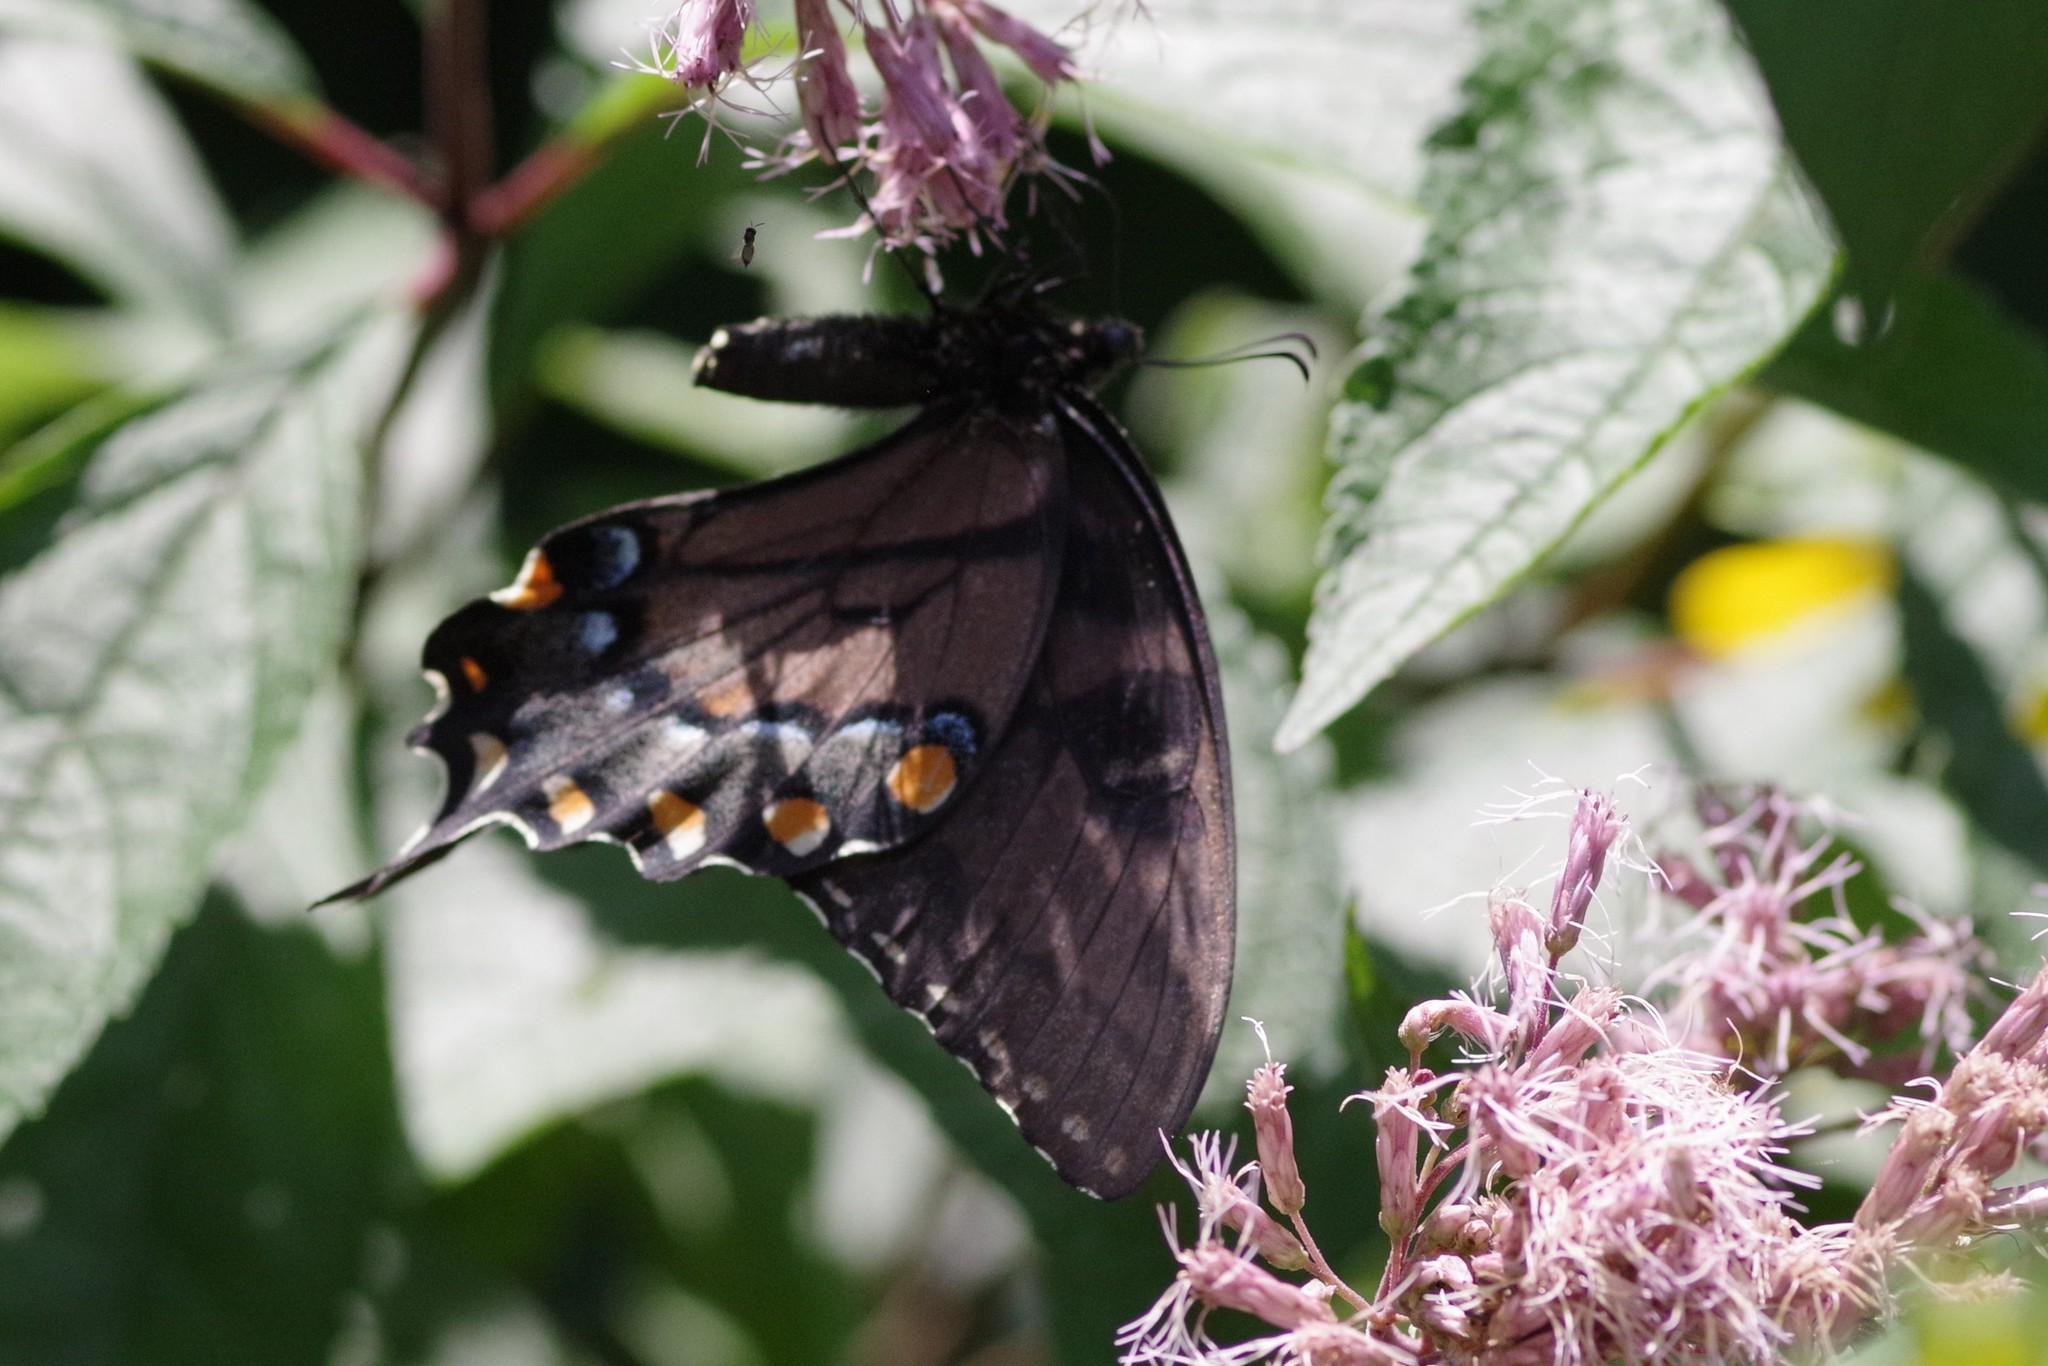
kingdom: Animalia
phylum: Arthropoda
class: Insecta
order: Lepidoptera
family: Papilionidae
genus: Papilio
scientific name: Papilio glaucus
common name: Tiger swallowtail
